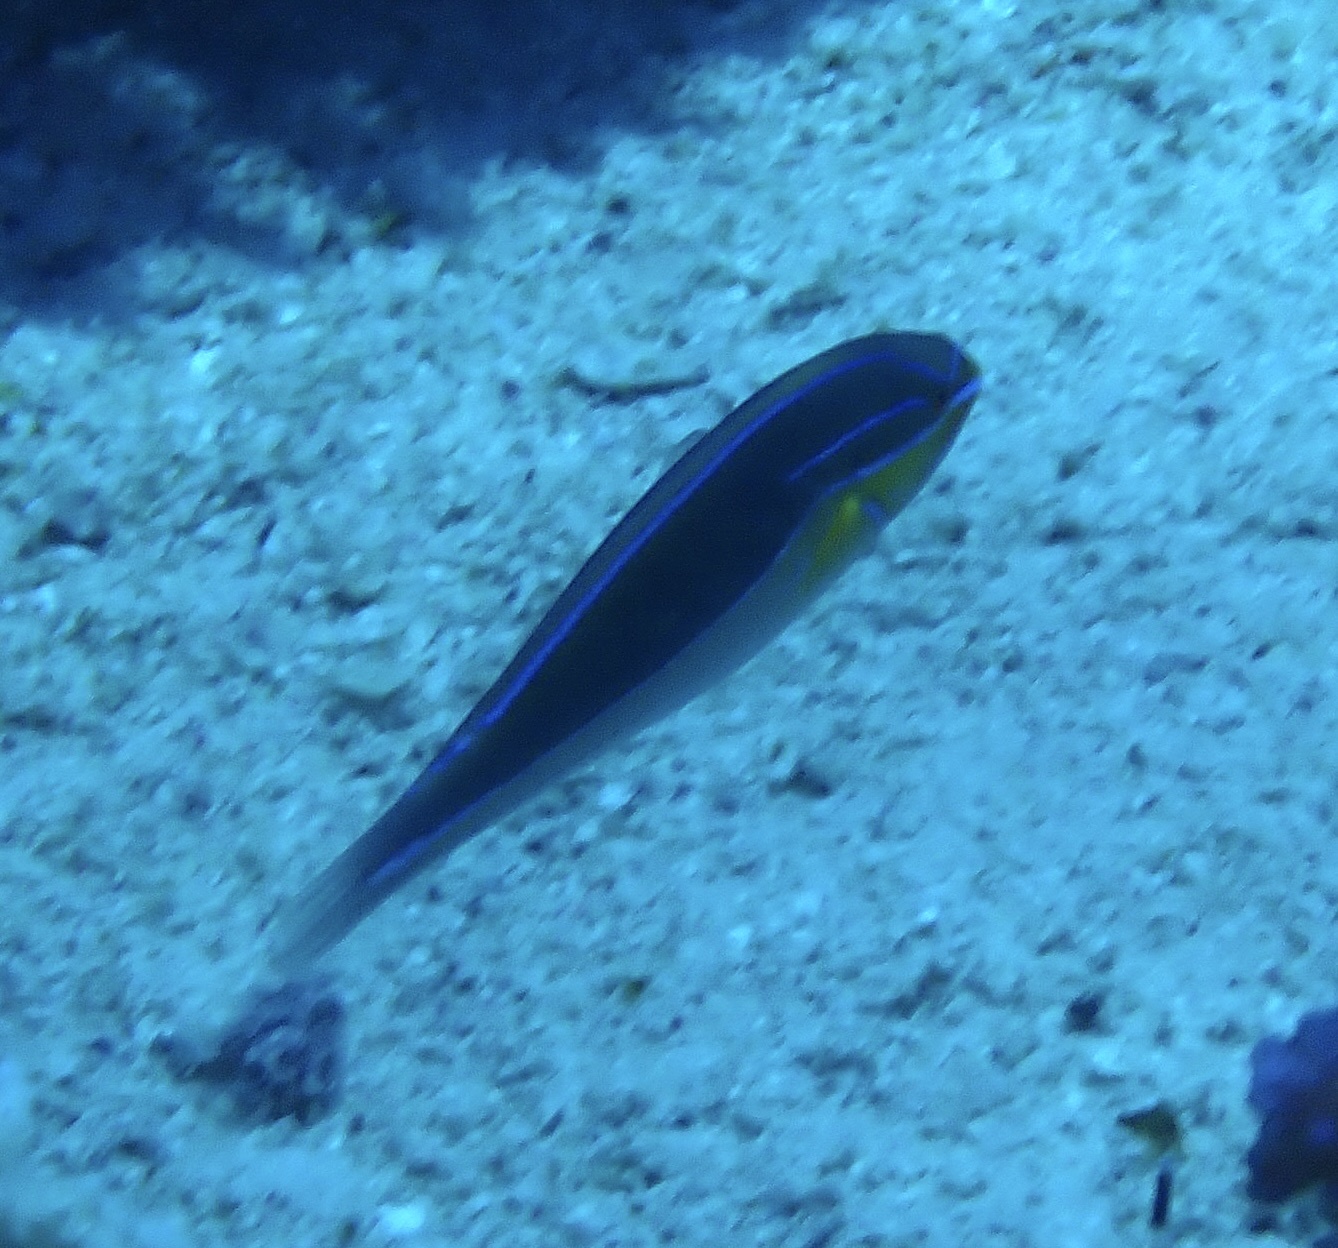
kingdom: Animalia
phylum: Chordata
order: Perciformes
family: Labridae
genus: Stethojulis
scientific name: Stethojulis albovittata
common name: Bluelined wrasse
